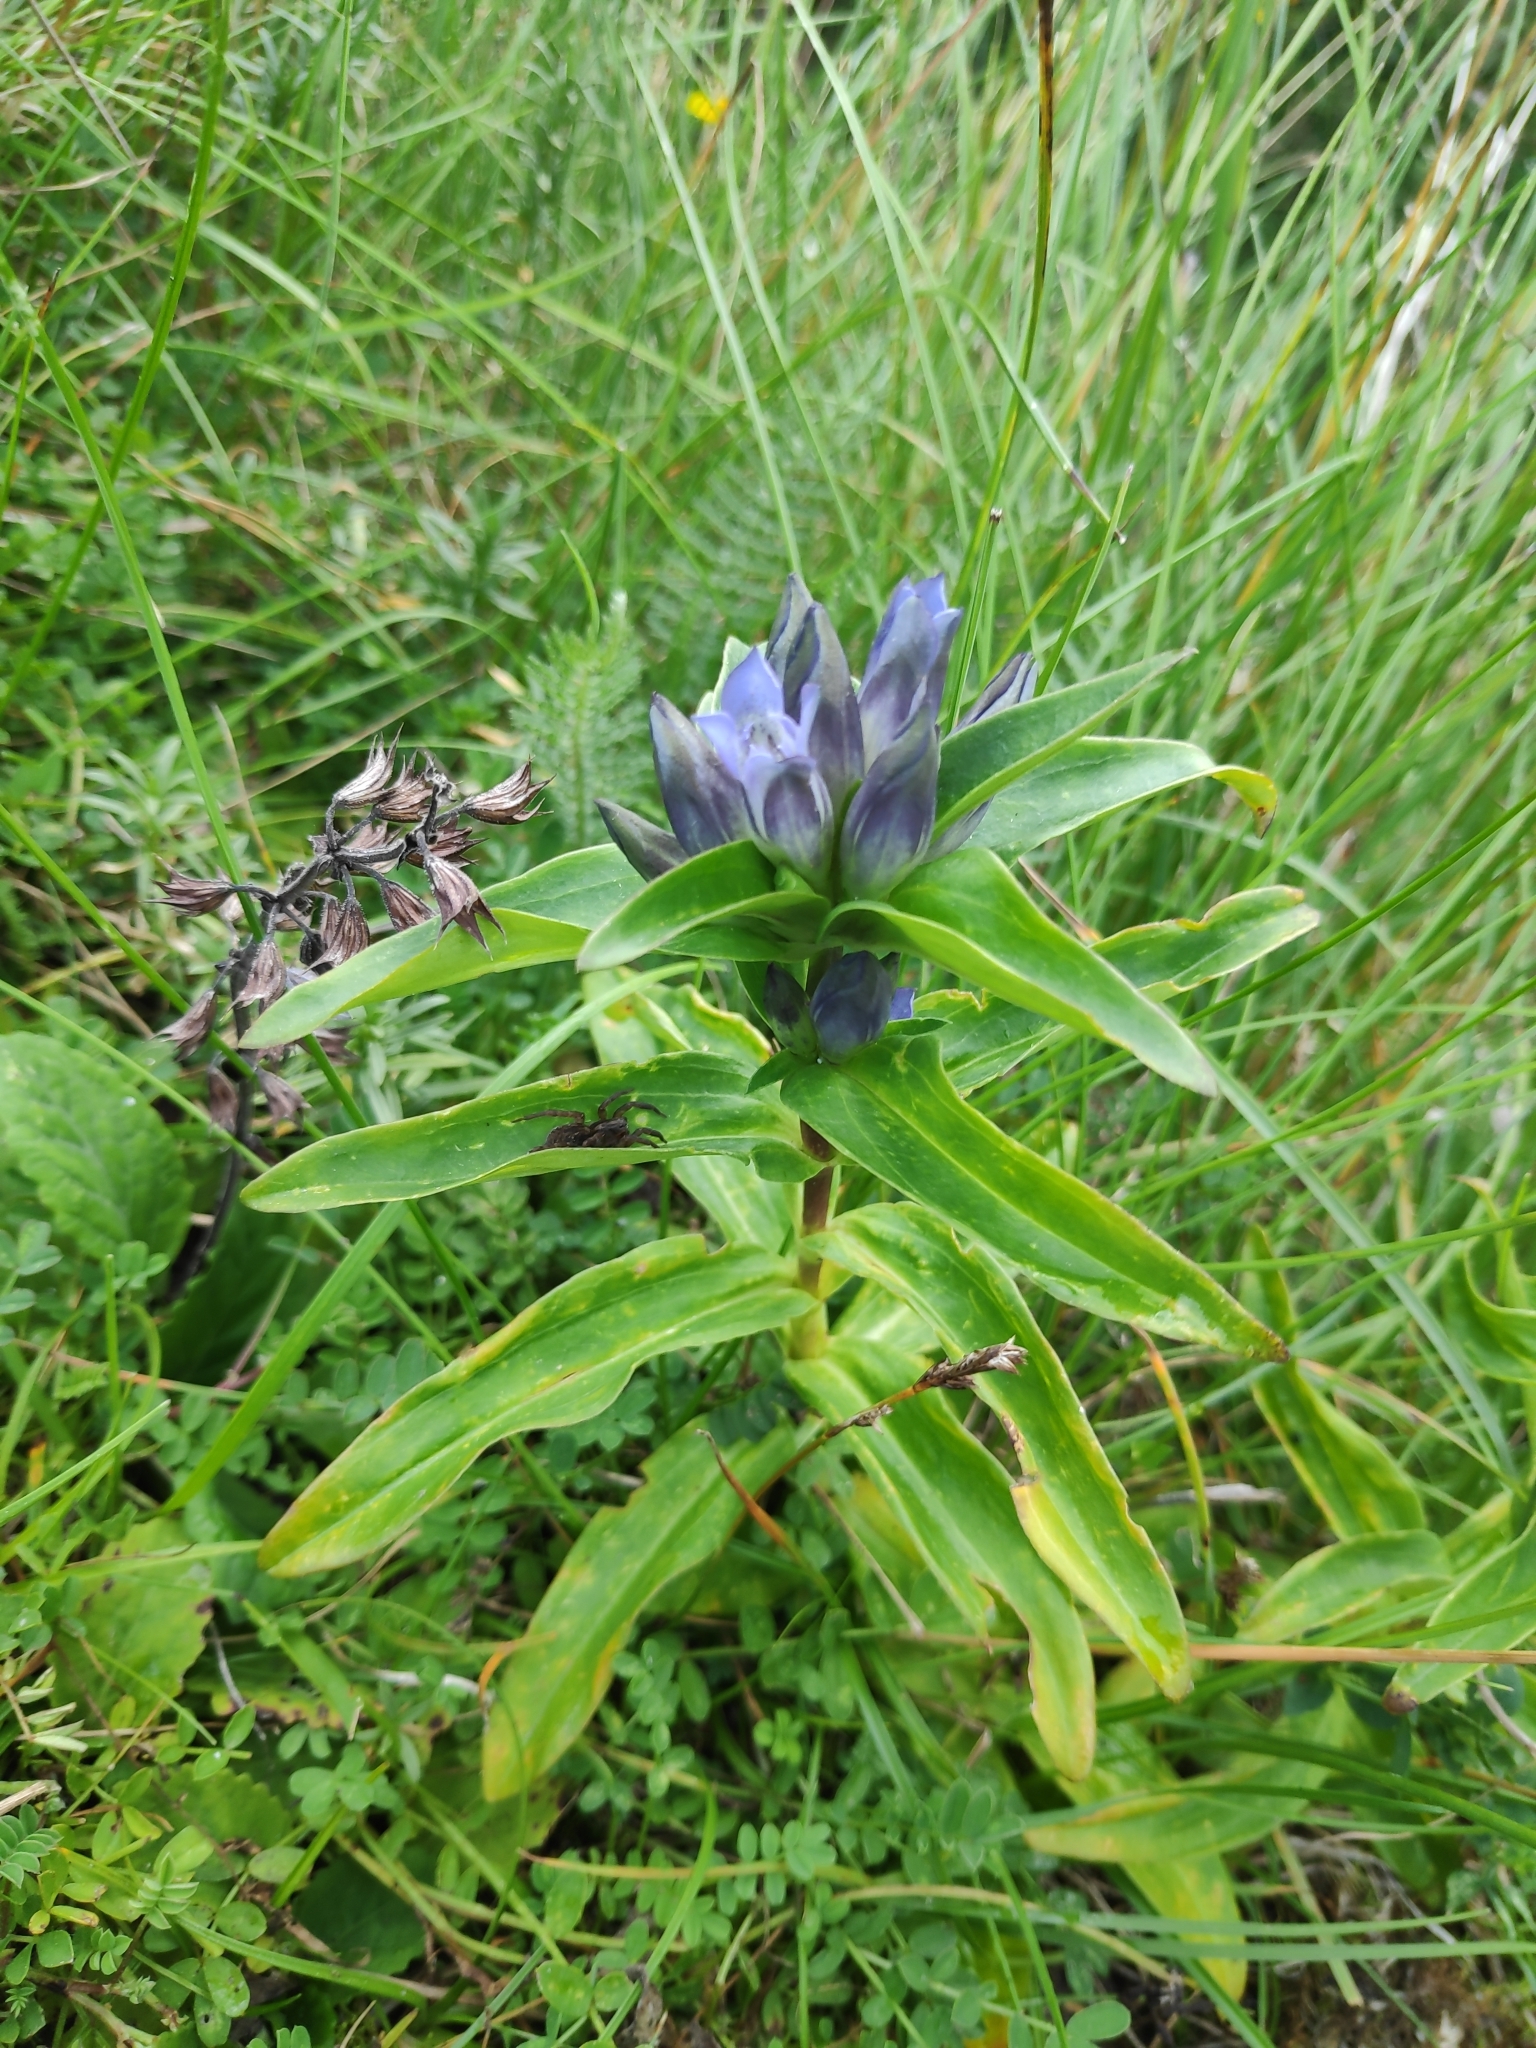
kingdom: Plantae
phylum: Tracheophyta
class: Magnoliopsida
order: Gentianales
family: Gentianaceae
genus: Gentiana
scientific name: Gentiana cruciata
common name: Cross gentian
